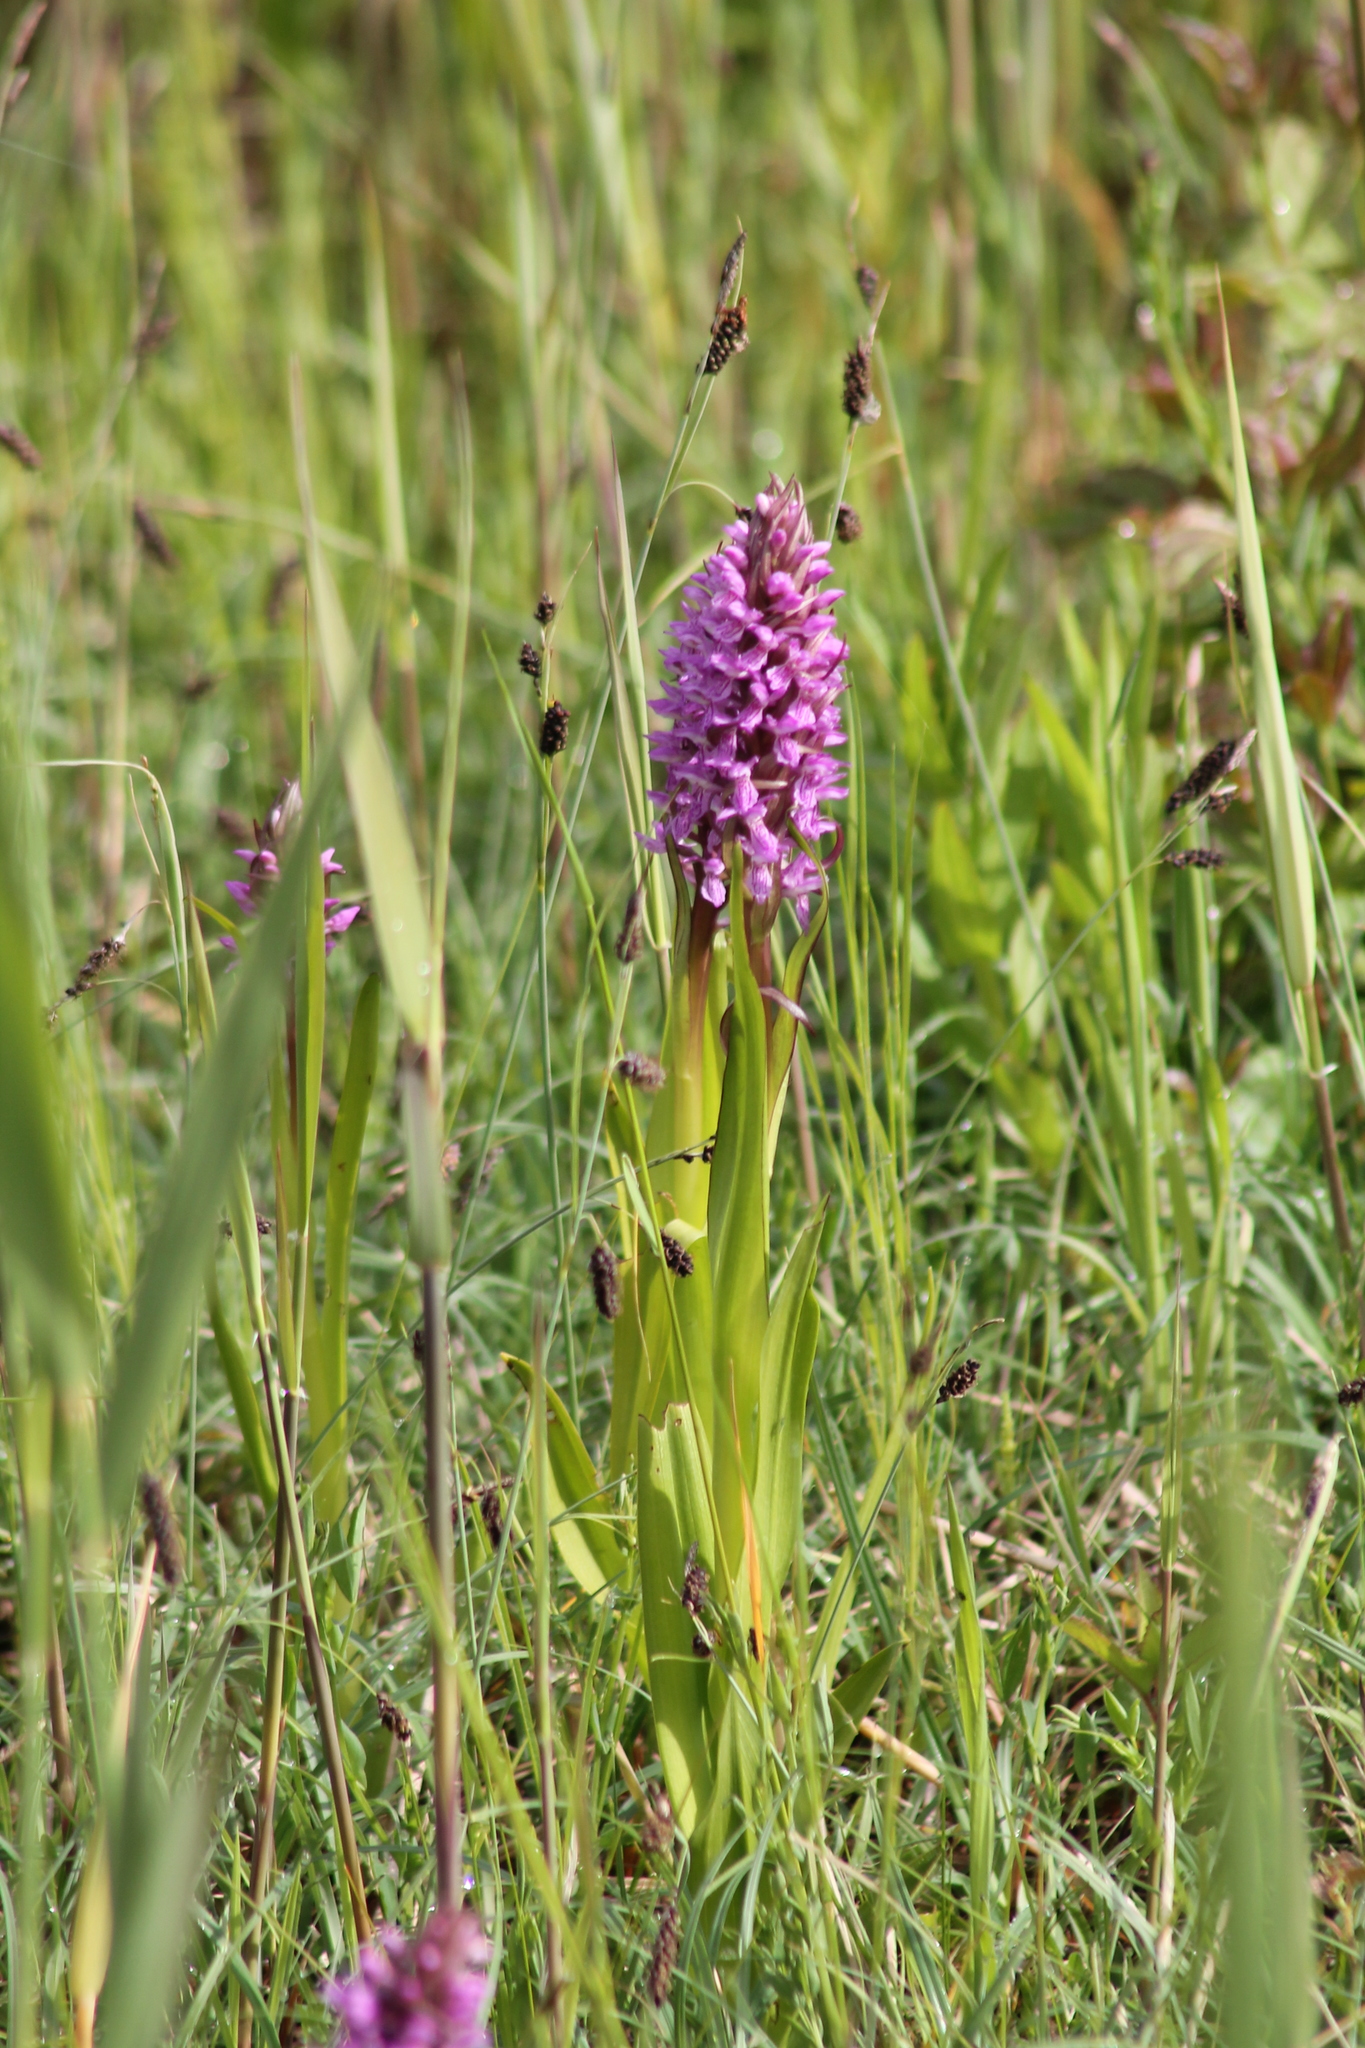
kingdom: Plantae
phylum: Tracheophyta
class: Liliopsida
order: Asparagales
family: Orchidaceae
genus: Dactylorhiza
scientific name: Dactylorhiza incarnata
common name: Early marsh-orchid
